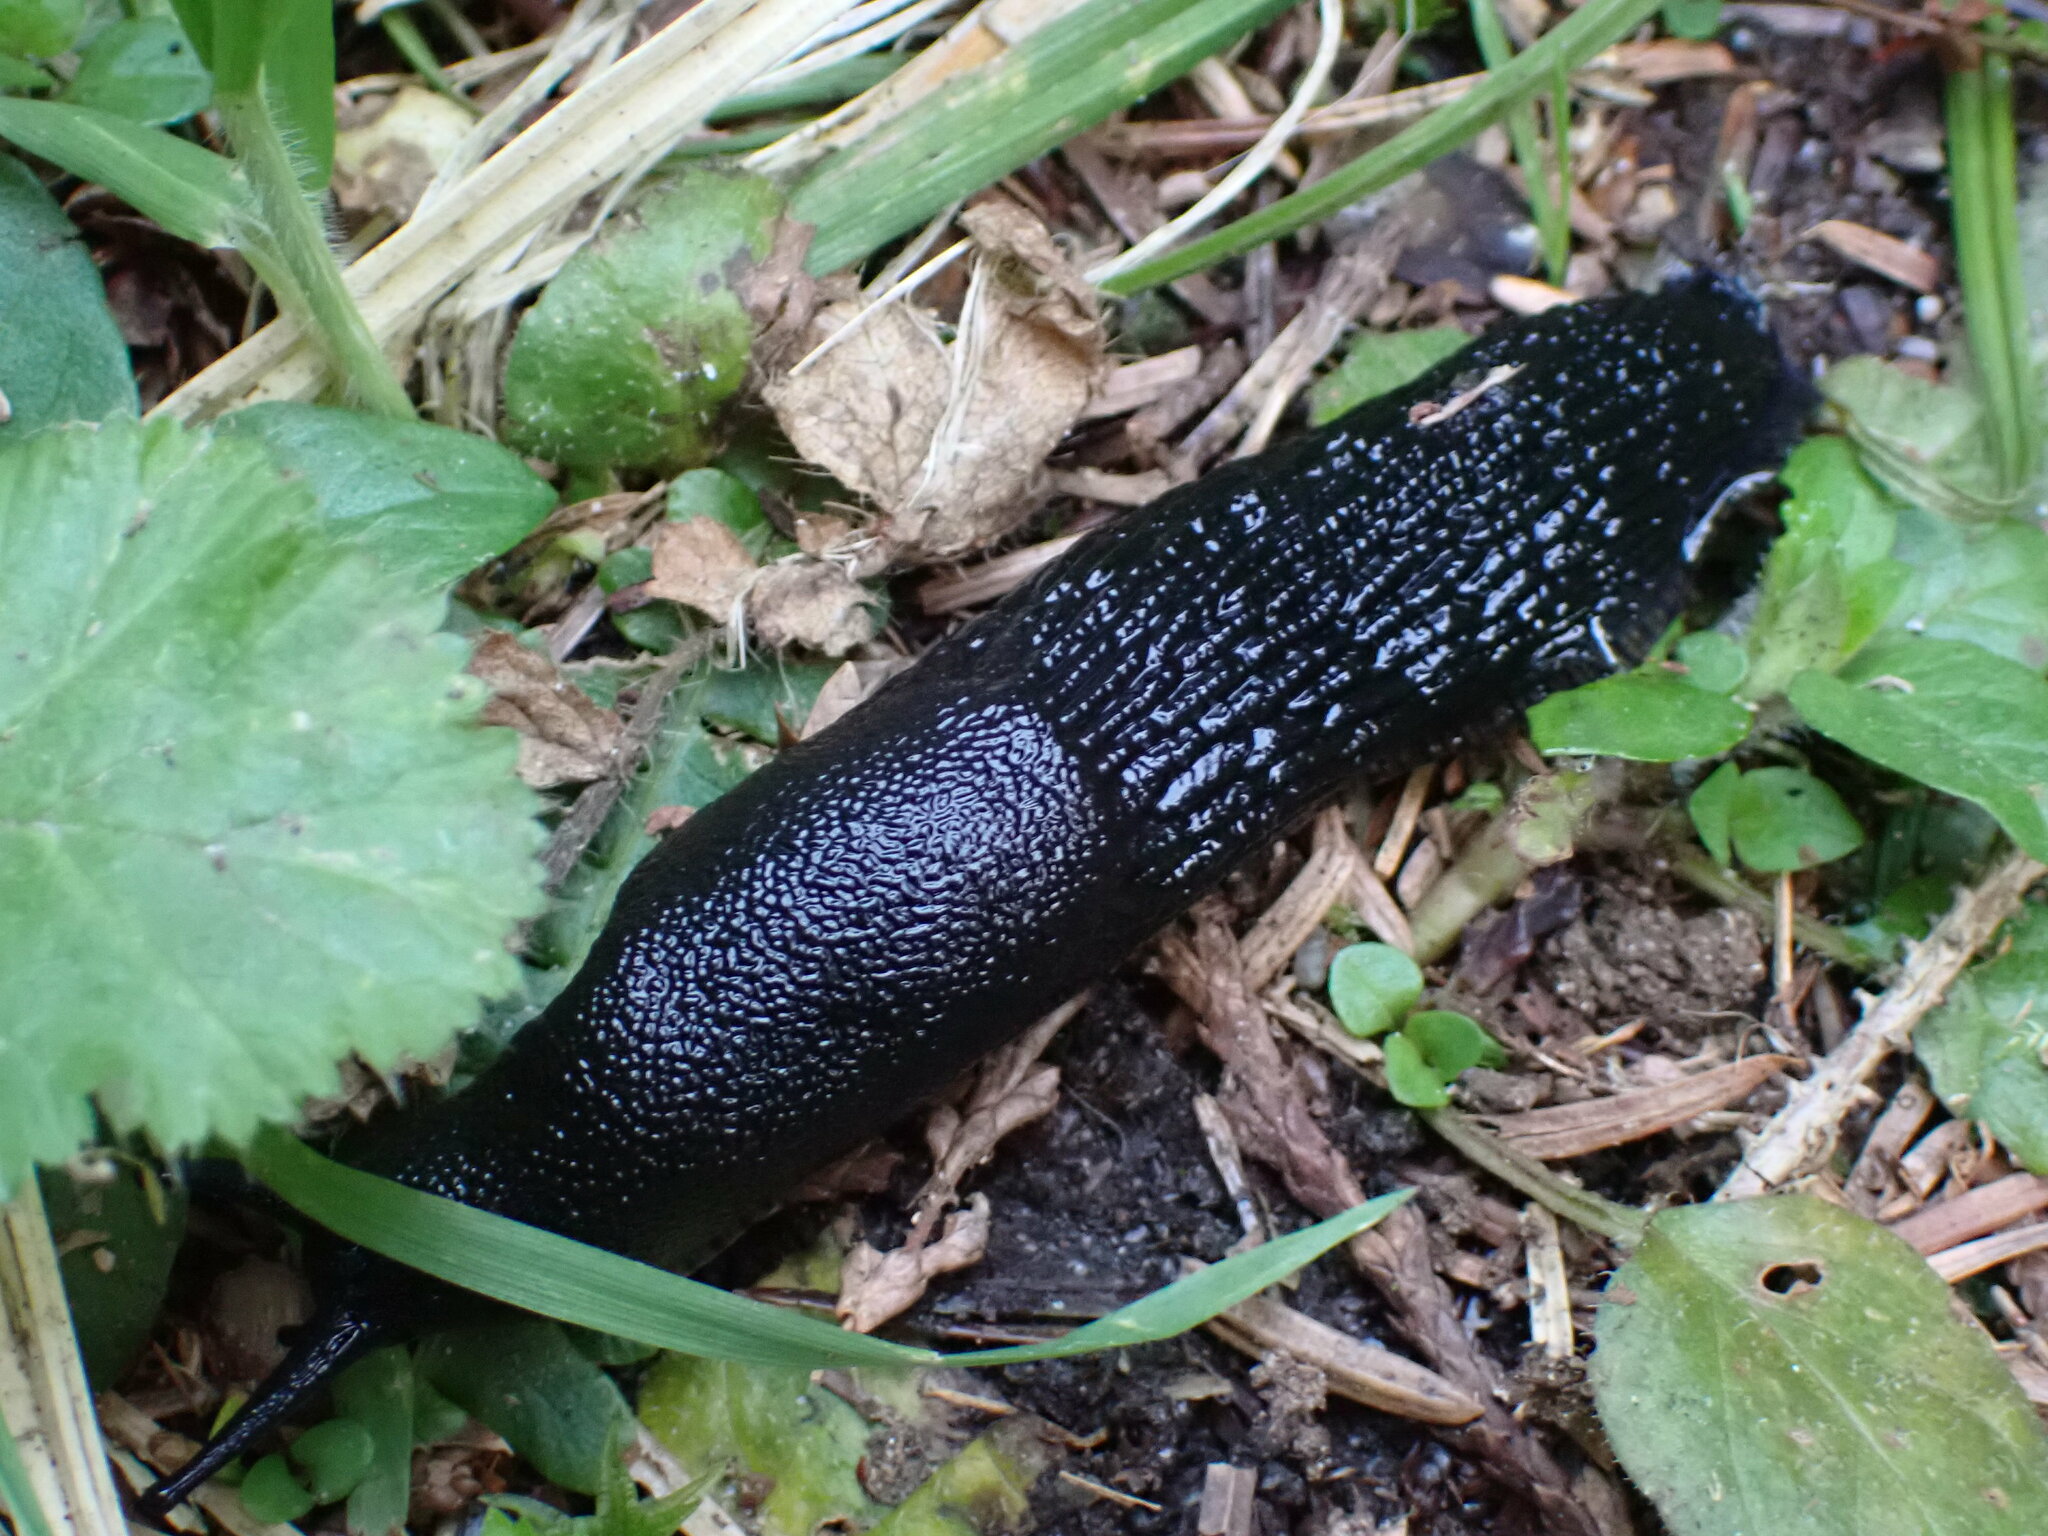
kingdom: Animalia
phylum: Mollusca
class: Gastropoda
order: Stylommatophora
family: Arionidae
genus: Arion
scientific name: Arion
